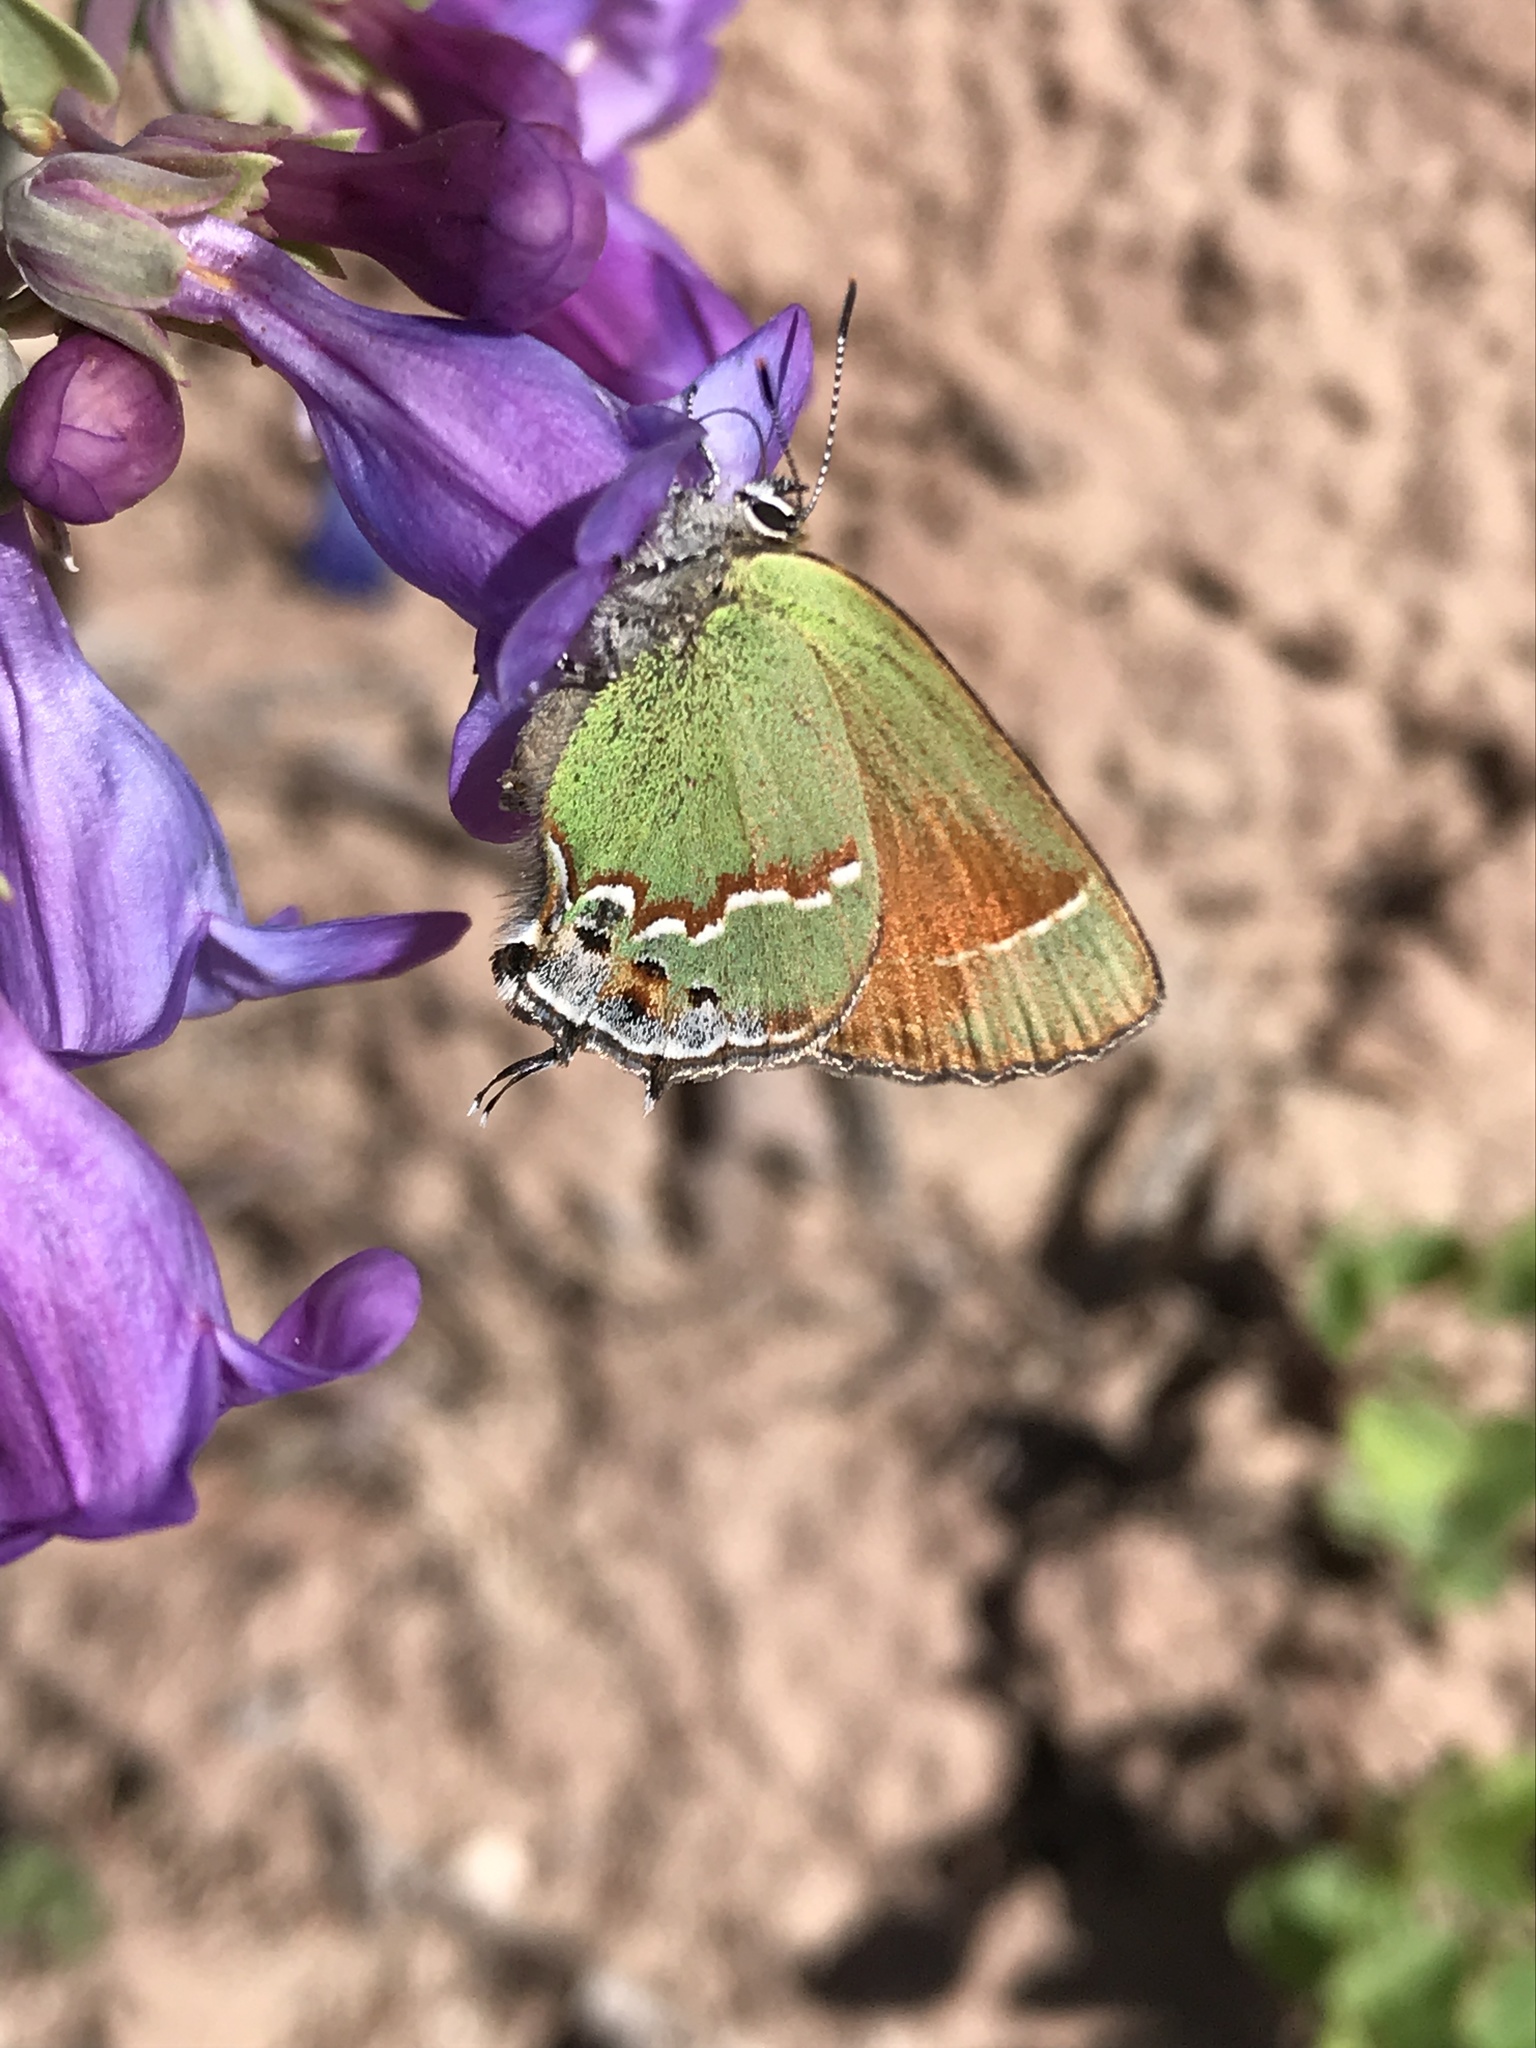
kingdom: Animalia
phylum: Arthropoda
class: Insecta
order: Lepidoptera
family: Lycaenidae
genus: Mitoura
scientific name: Mitoura siva
